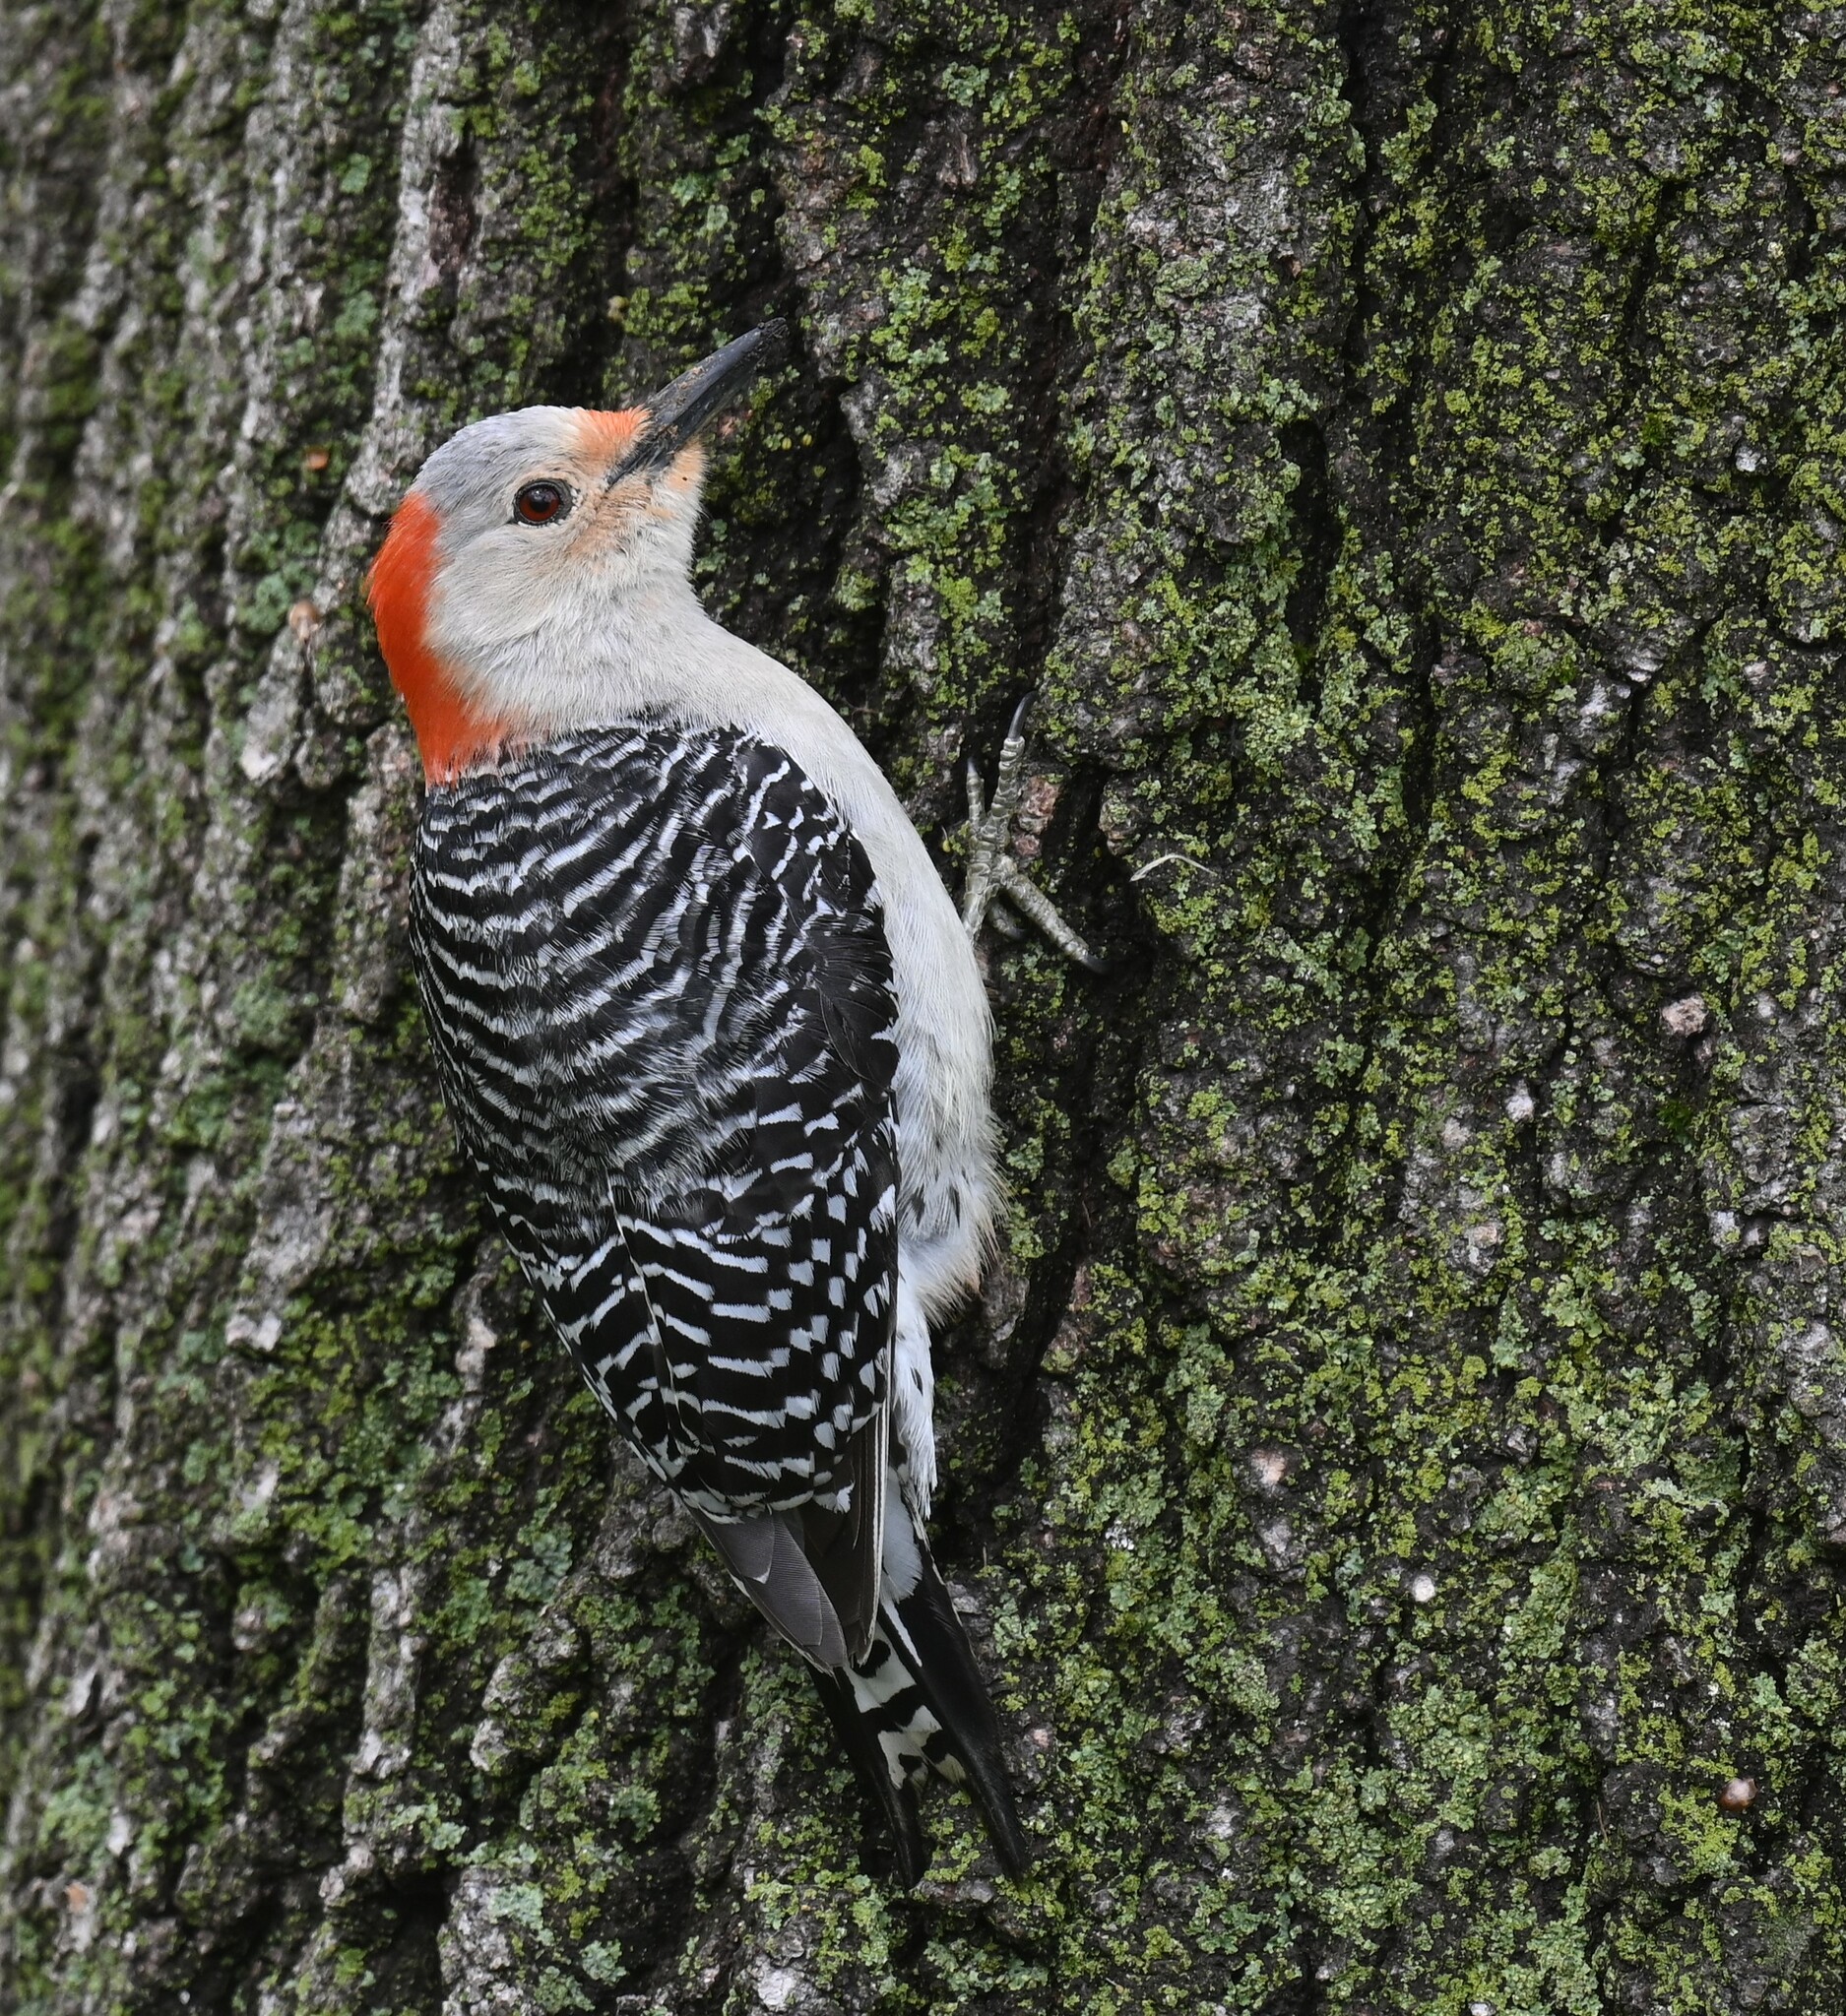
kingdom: Animalia
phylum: Chordata
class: Aves
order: Piciformes
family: Picidae
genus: Melanerpes
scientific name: Melanerpes carolinus
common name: Red-bellied woodpecker
